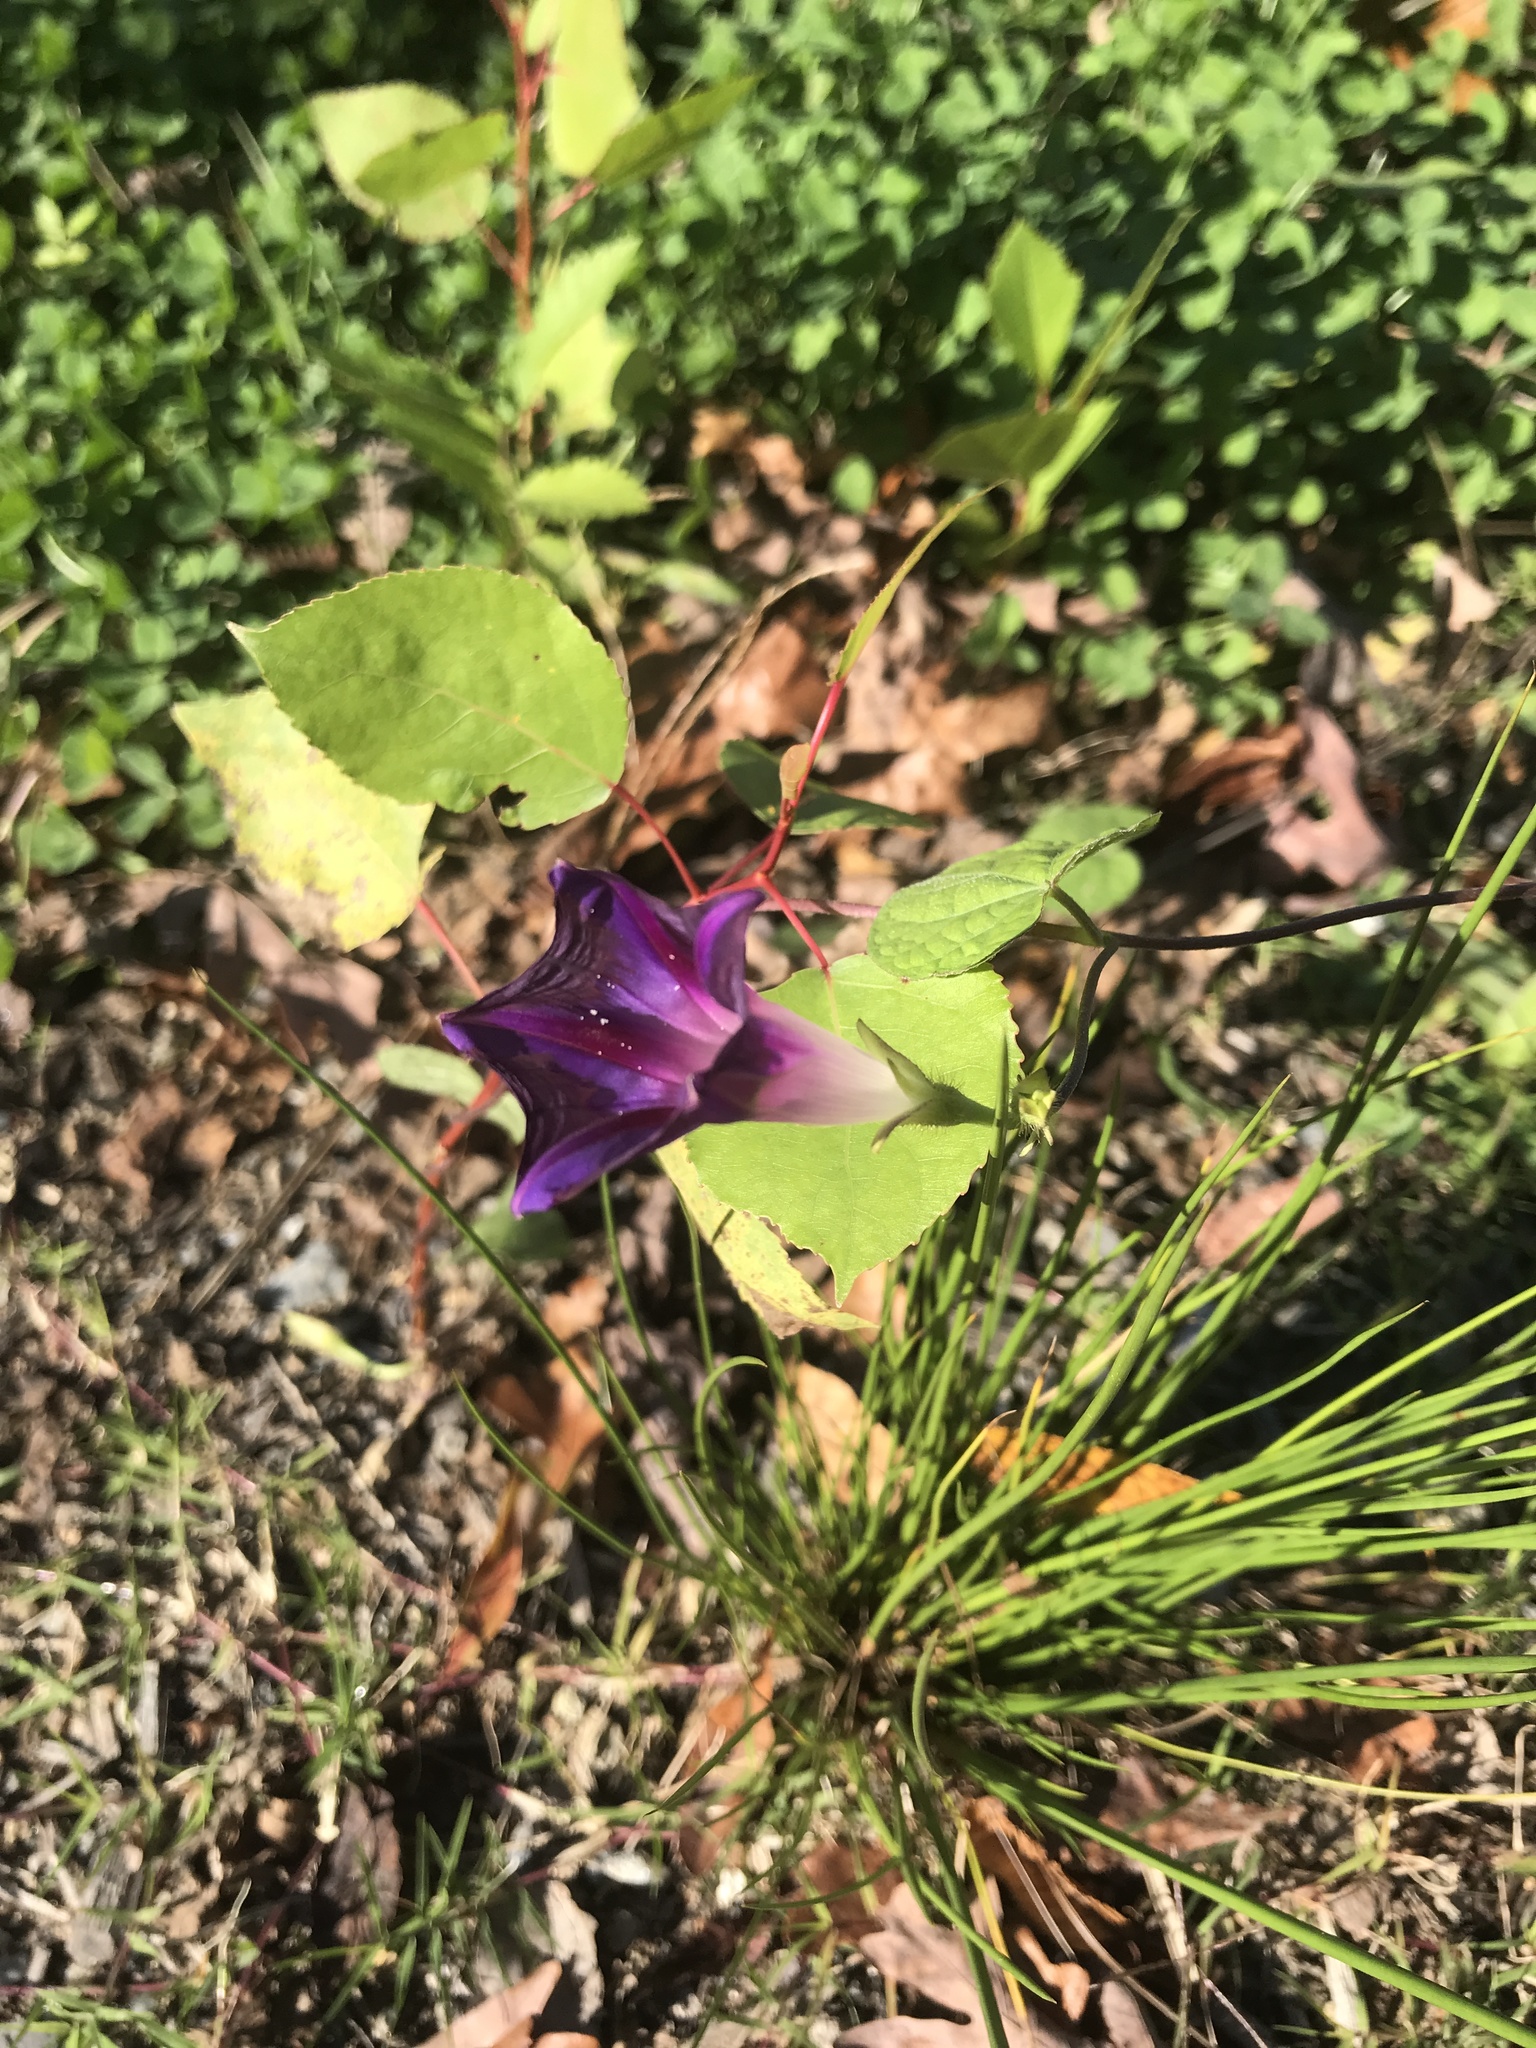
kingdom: Plantae
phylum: Tracheophyta
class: Magnoliopsida
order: Solanales
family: Convolvulaceae
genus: Ipomoea
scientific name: Ipomoea purpurea
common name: Common morning-glory
